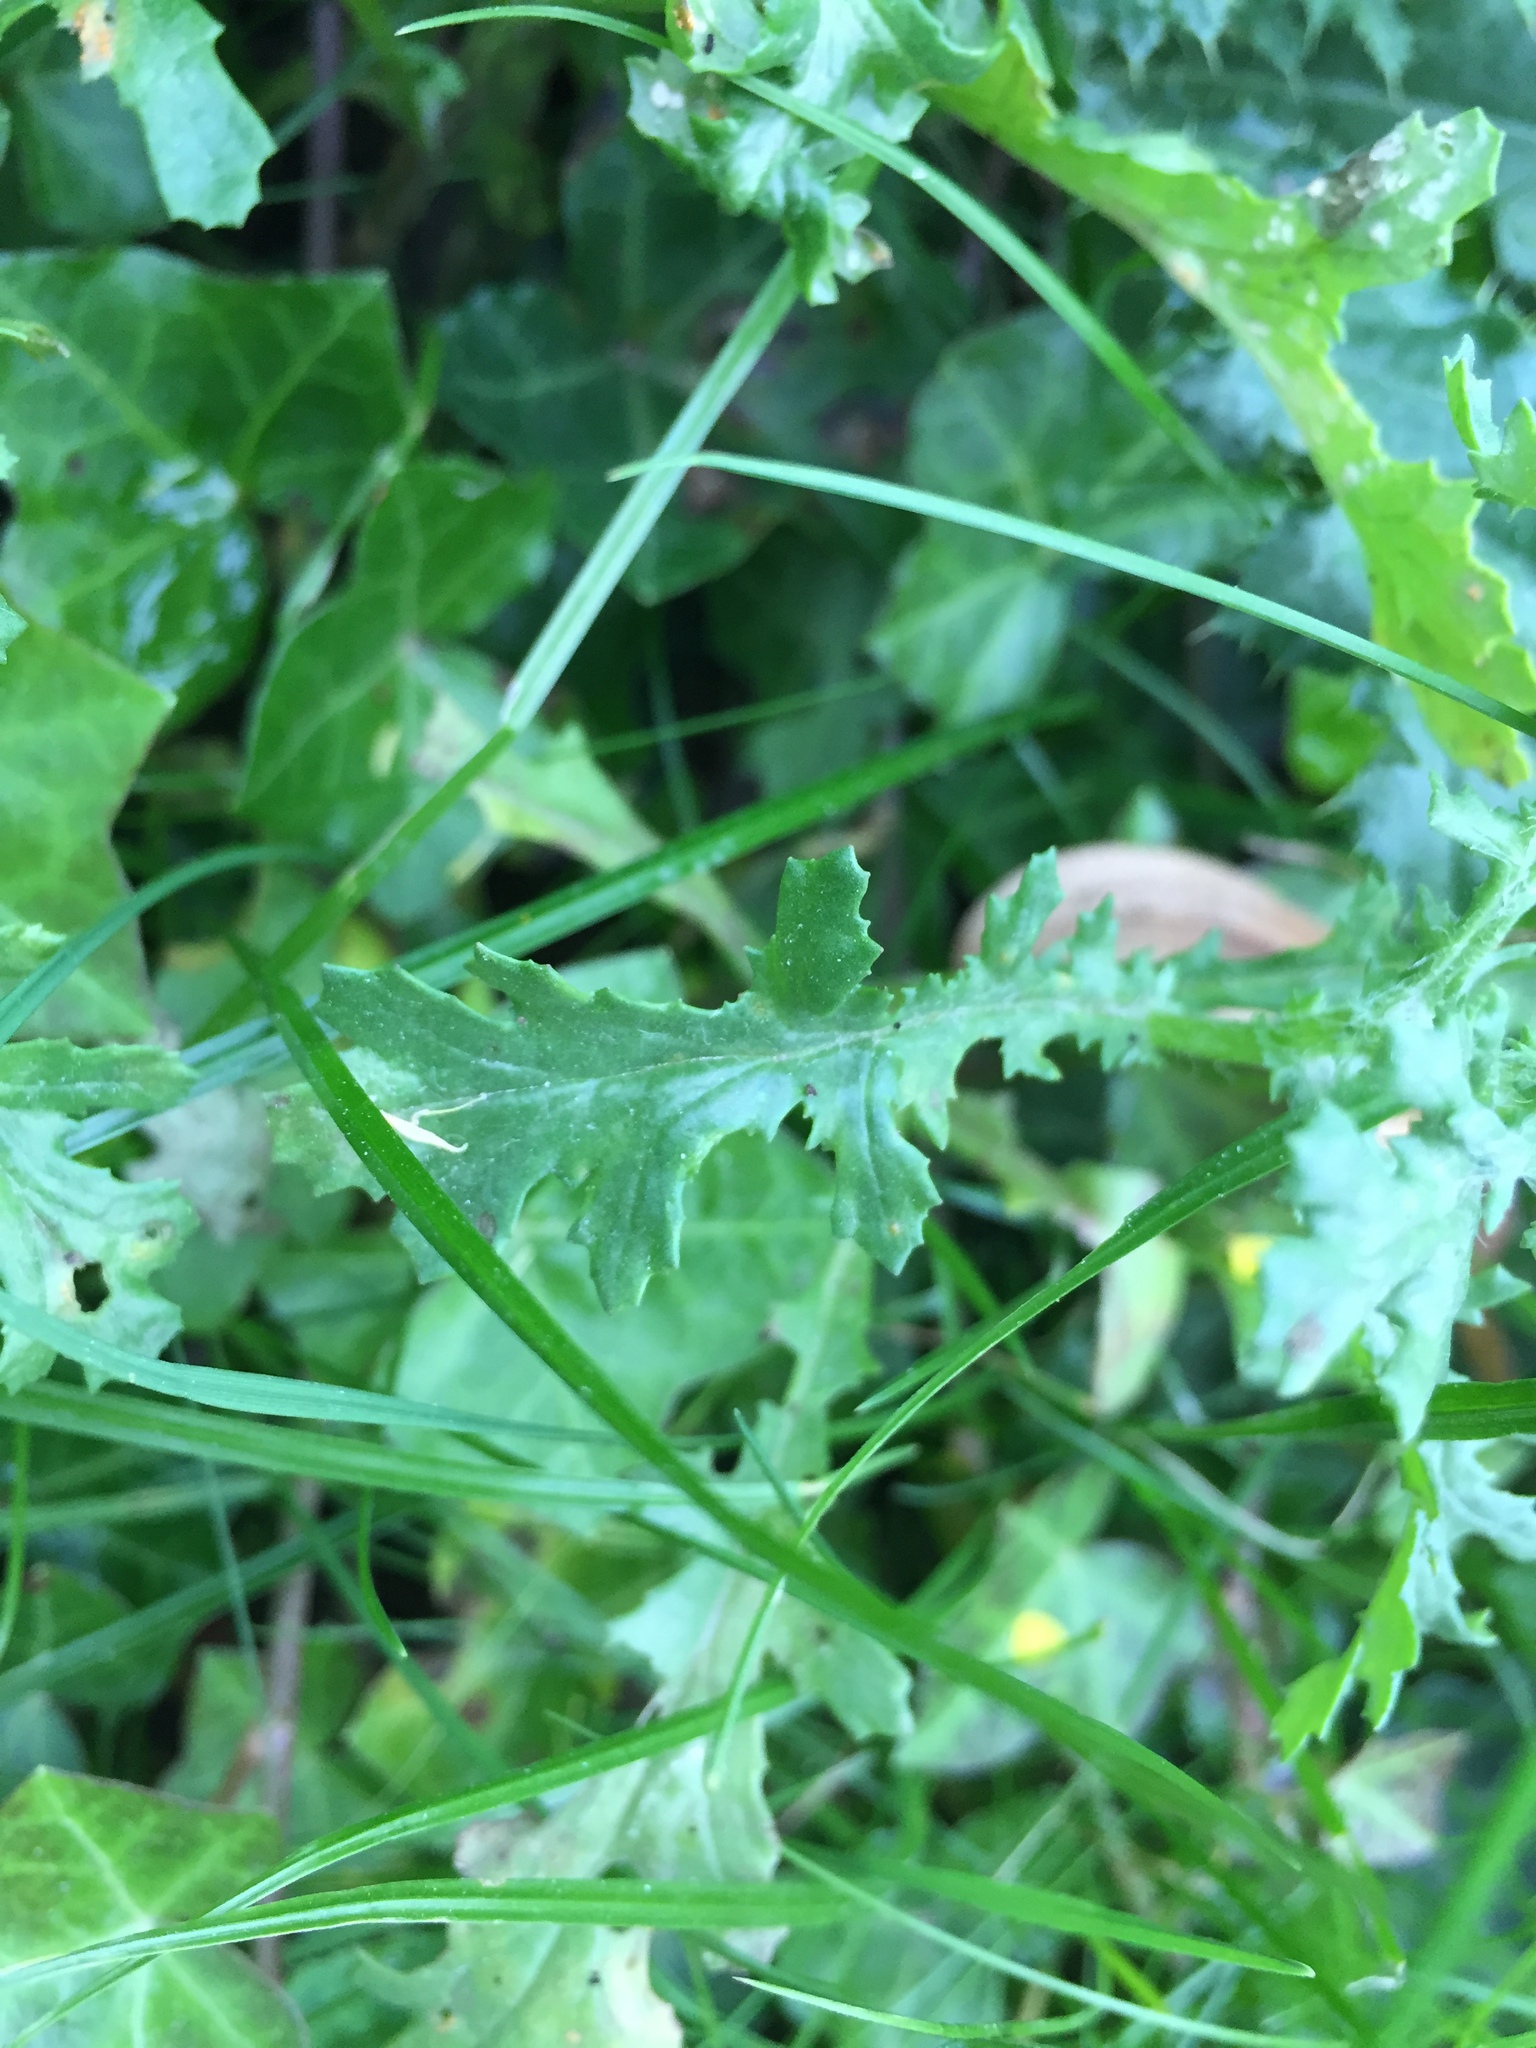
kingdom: Plantae
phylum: Tracheophyta
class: Magnoliopsida
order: Asterales
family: Asteraceae
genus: Senecio
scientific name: Senecio vulgaris
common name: Old-man-in-the-spring
